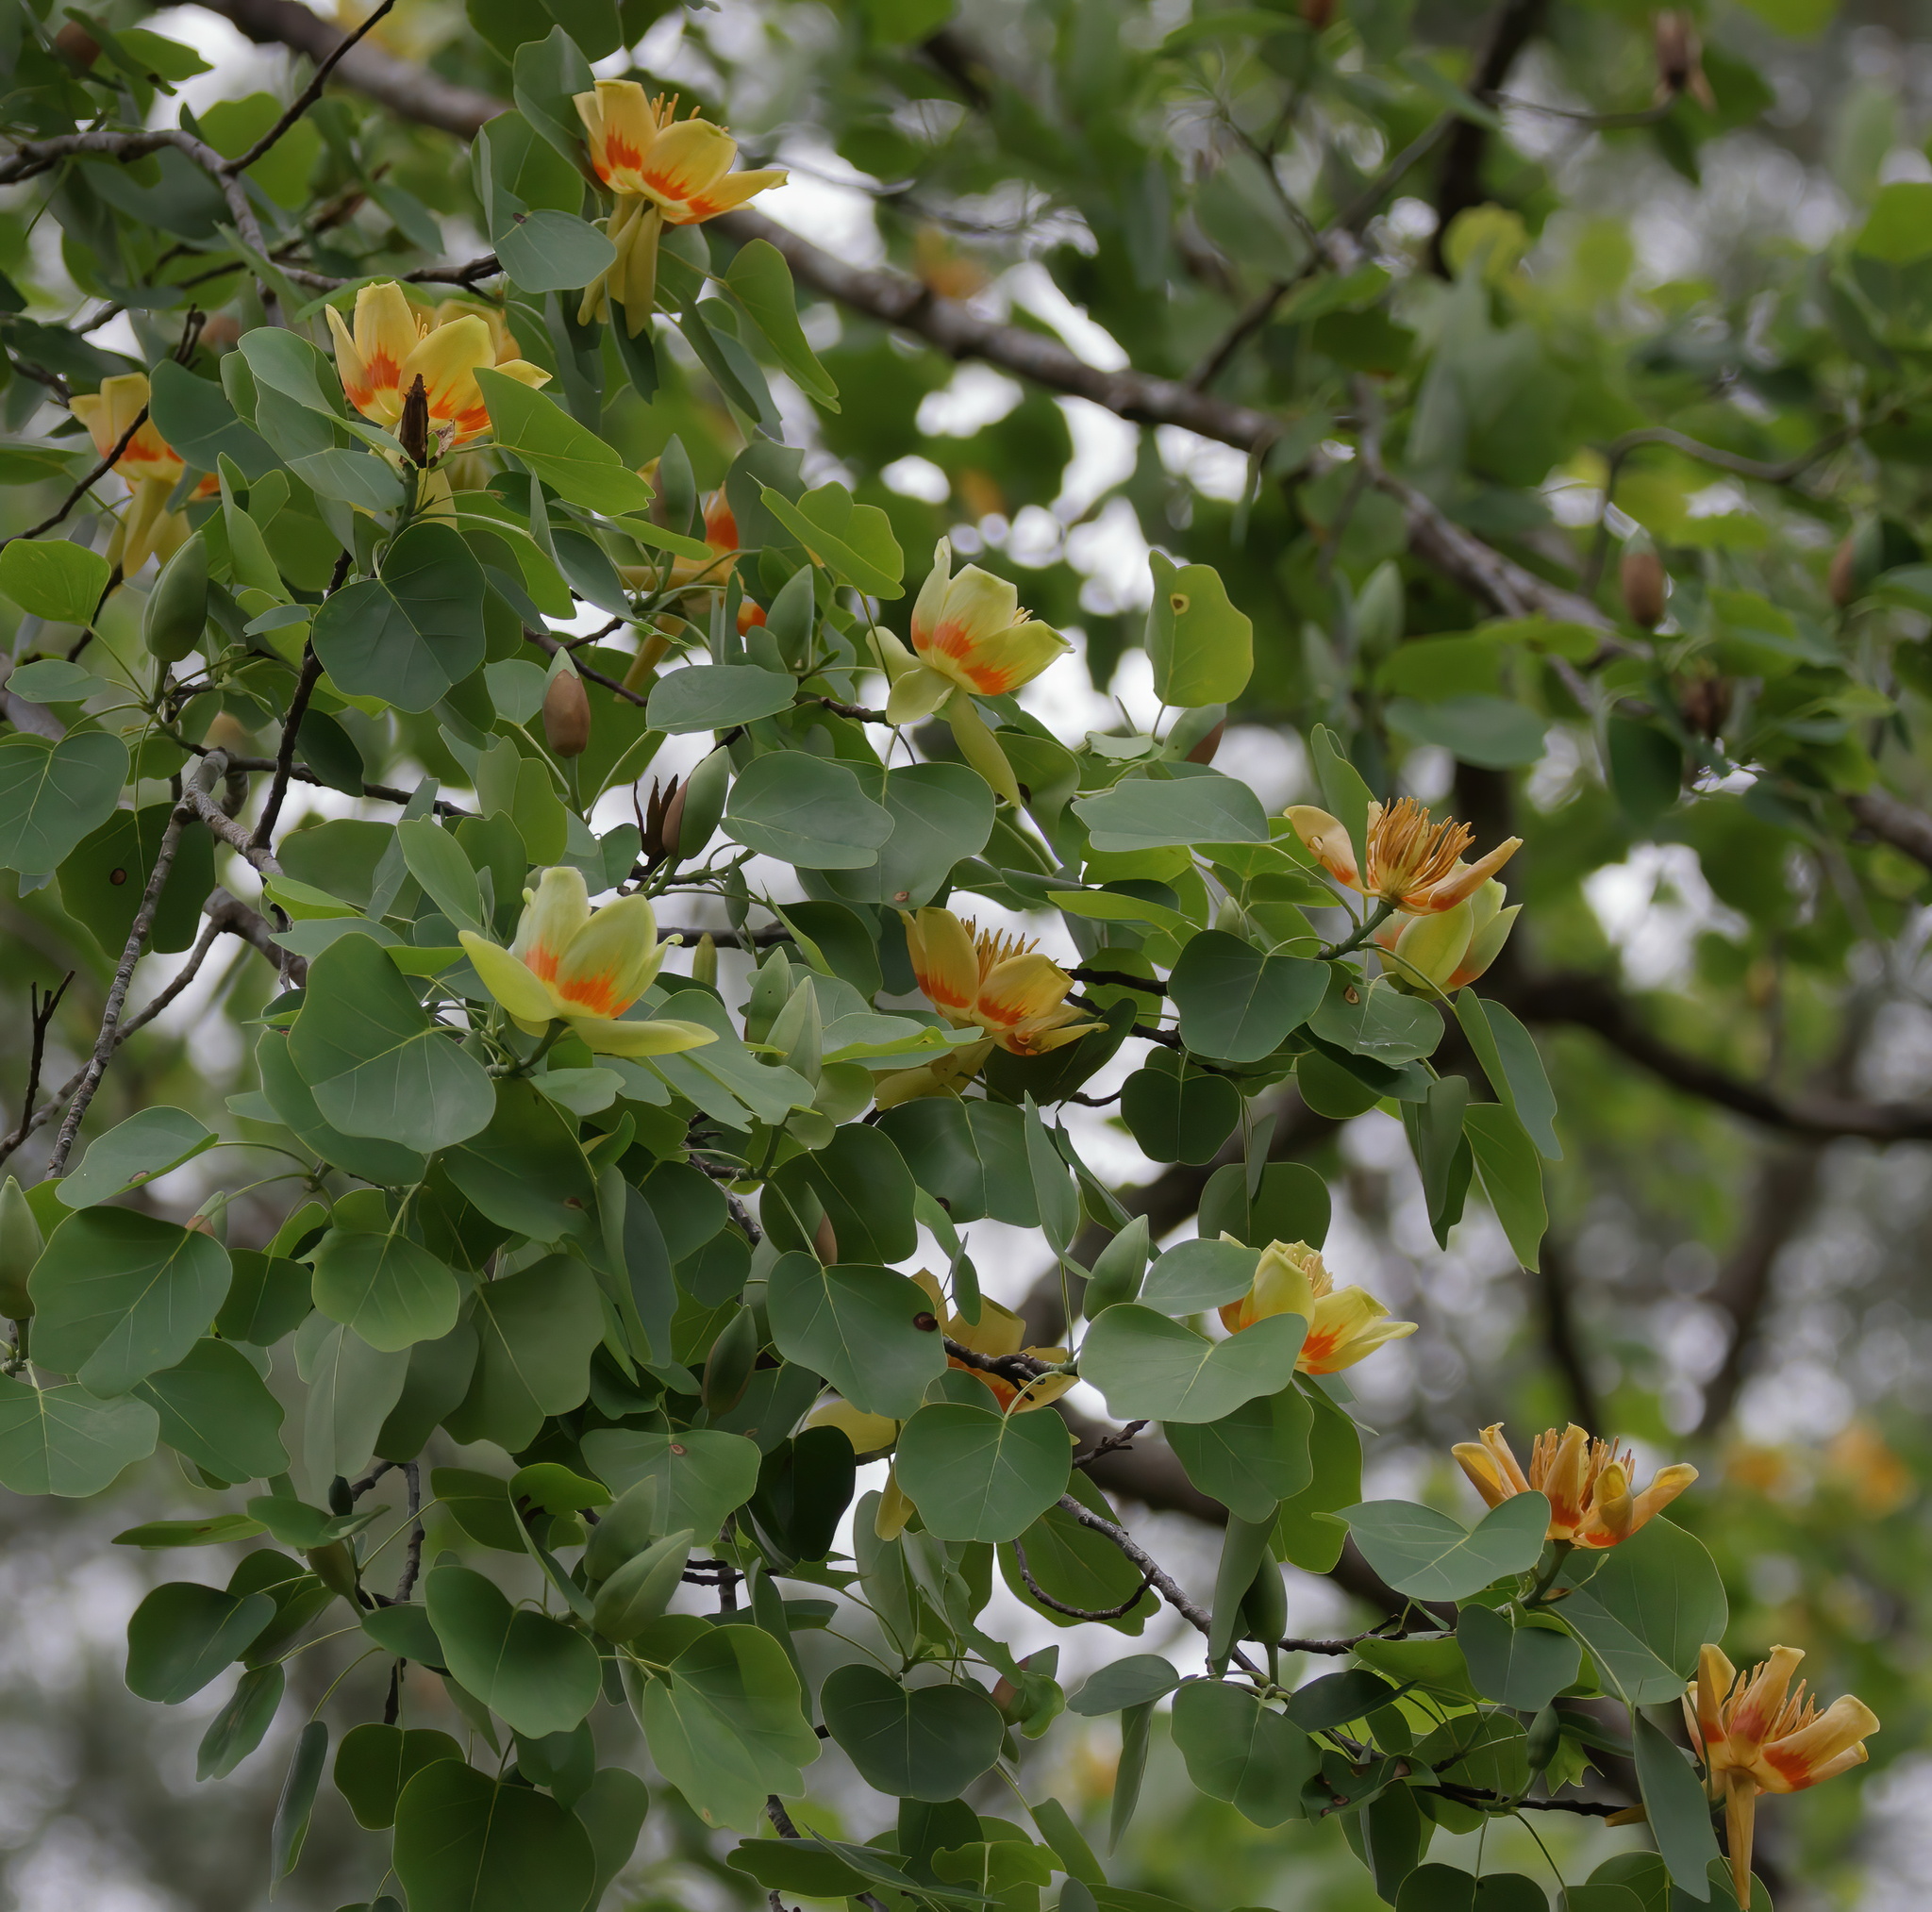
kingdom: Plantae
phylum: Tracheophyta
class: Magnoliopsida
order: Magnoliales
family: Magnoliaceae
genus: Liriodendron
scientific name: Liriodendron tulipifera
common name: Tulip tree
